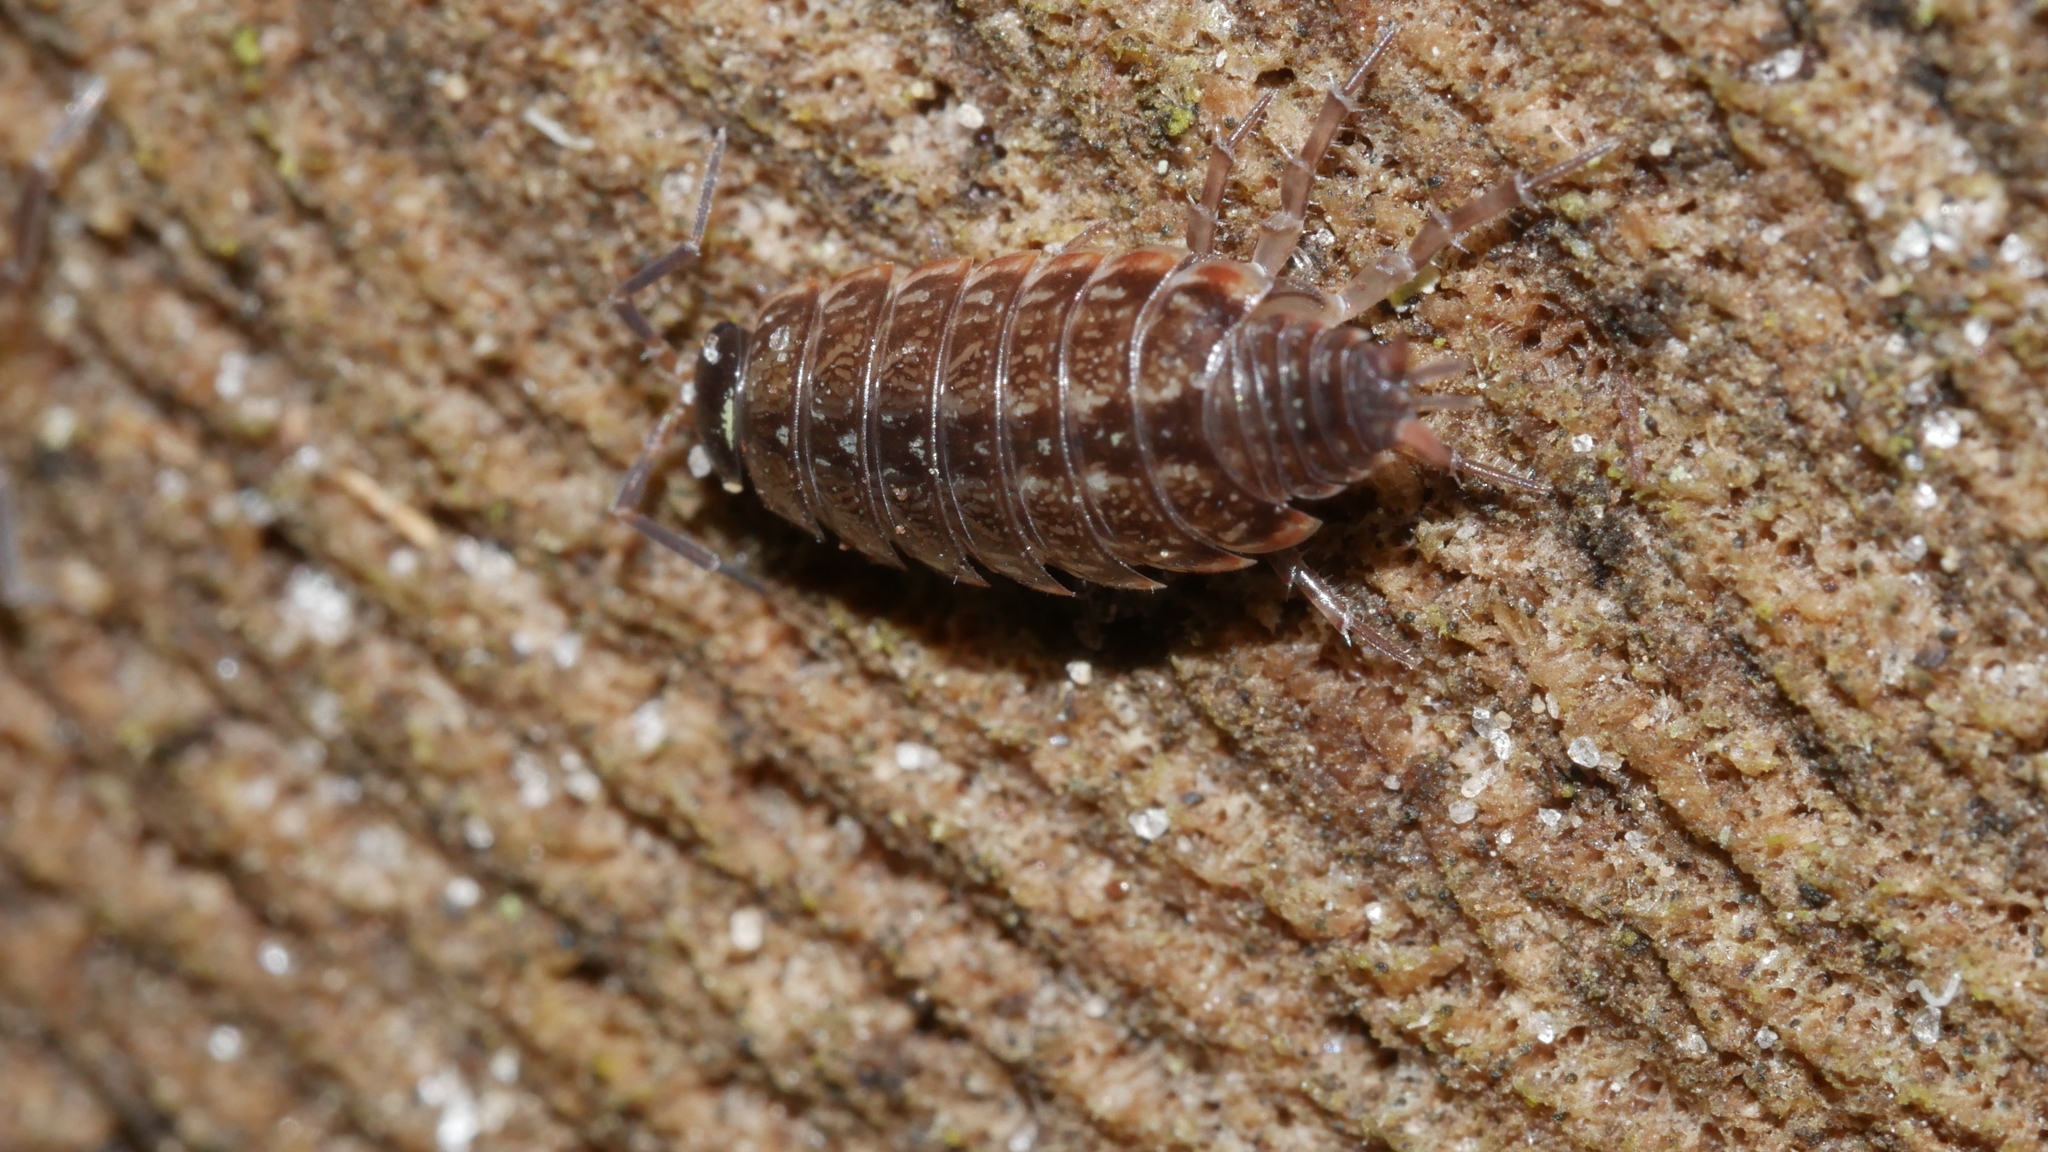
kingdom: Animalia
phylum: Arthropoda
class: Malacostraca
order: Isopoda
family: Philosciidae
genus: Philoscia
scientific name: Philoscia muscorum
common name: Common striped woodlouse
